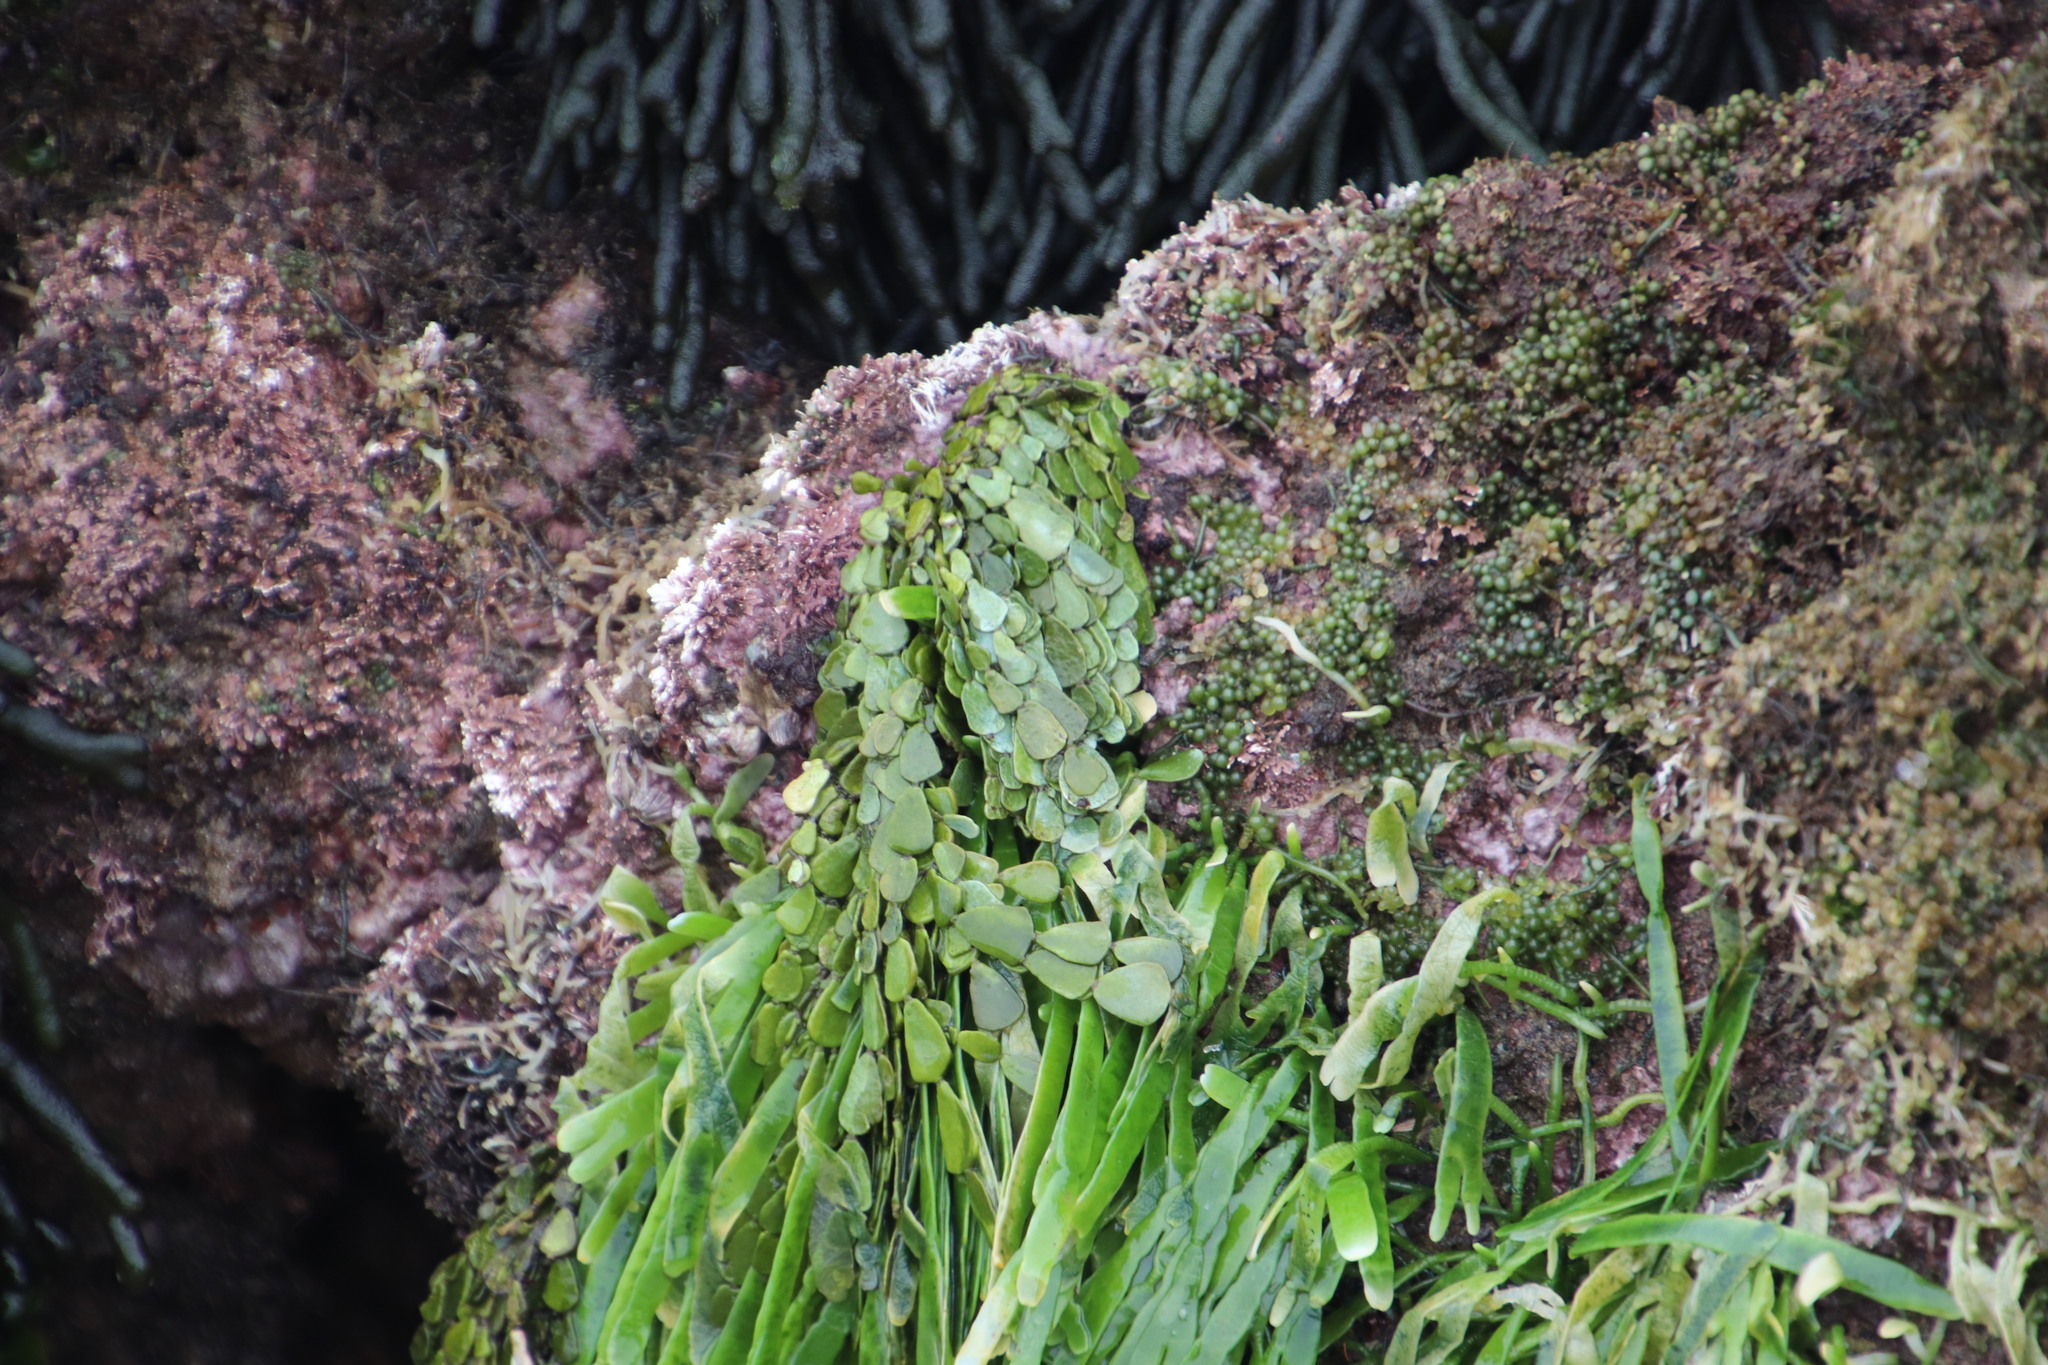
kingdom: Plantae
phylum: Chlorophyta
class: Ulvophyceae
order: Bryopsidales
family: Halimedaceae
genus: Halimeda
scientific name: Halimeda cuneata
